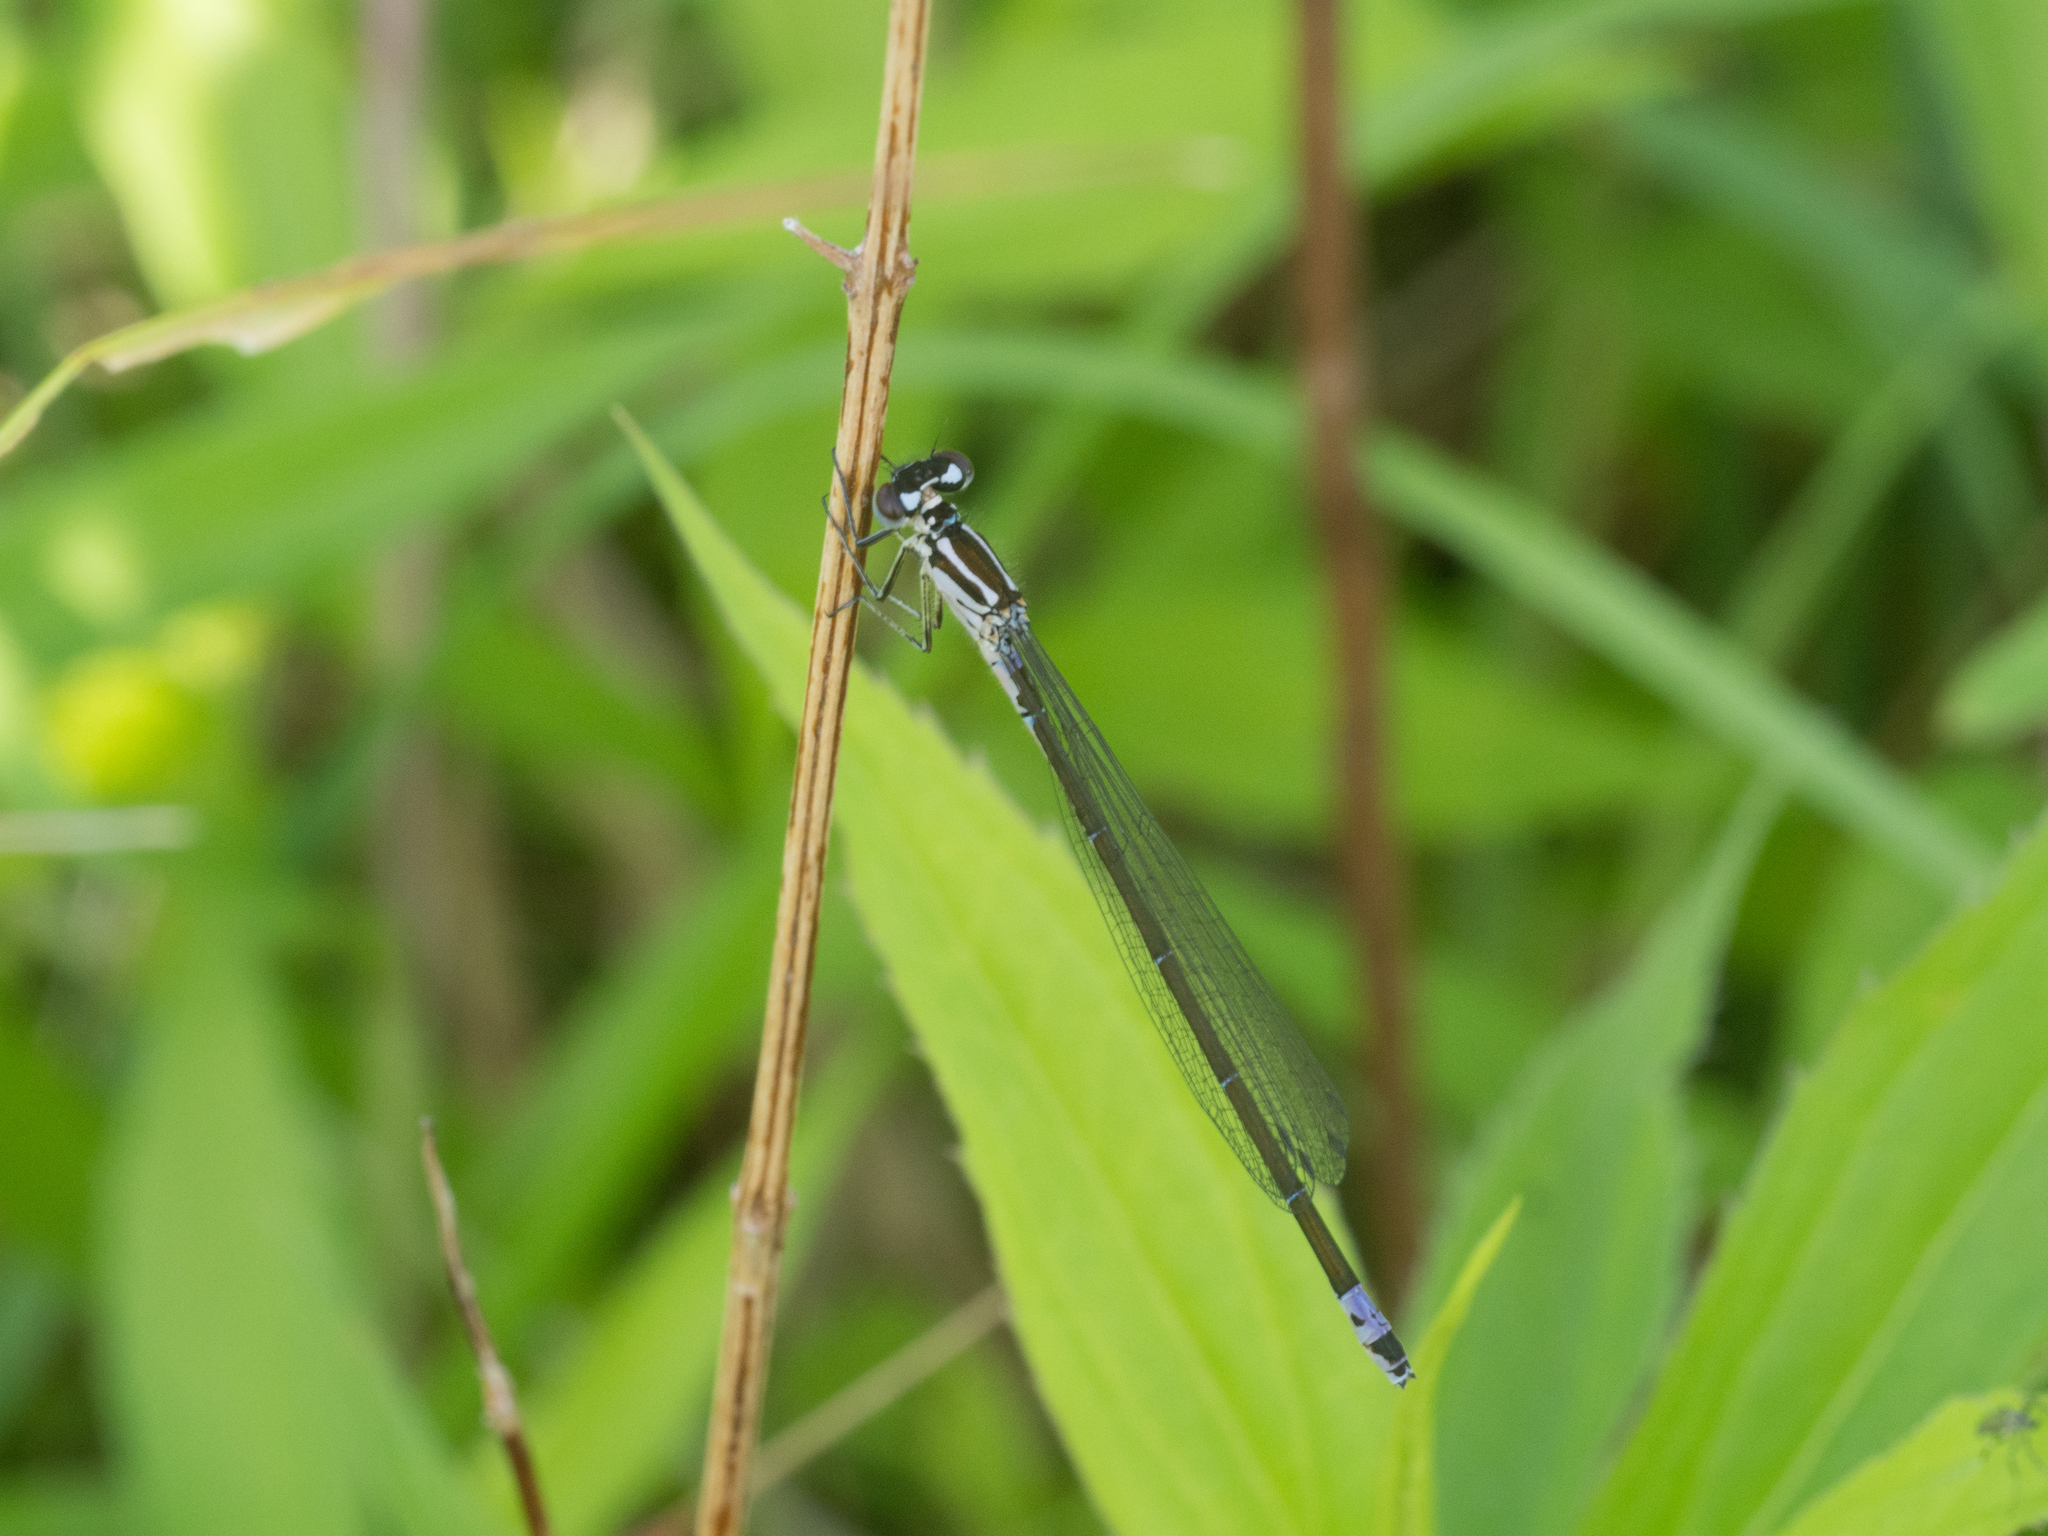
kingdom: Animalia
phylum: Arthropoda
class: Insecta
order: Odonata
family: Coenagrionidae
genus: Coenagrion
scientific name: Coenagrion pulchellum
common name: Variable bluet
